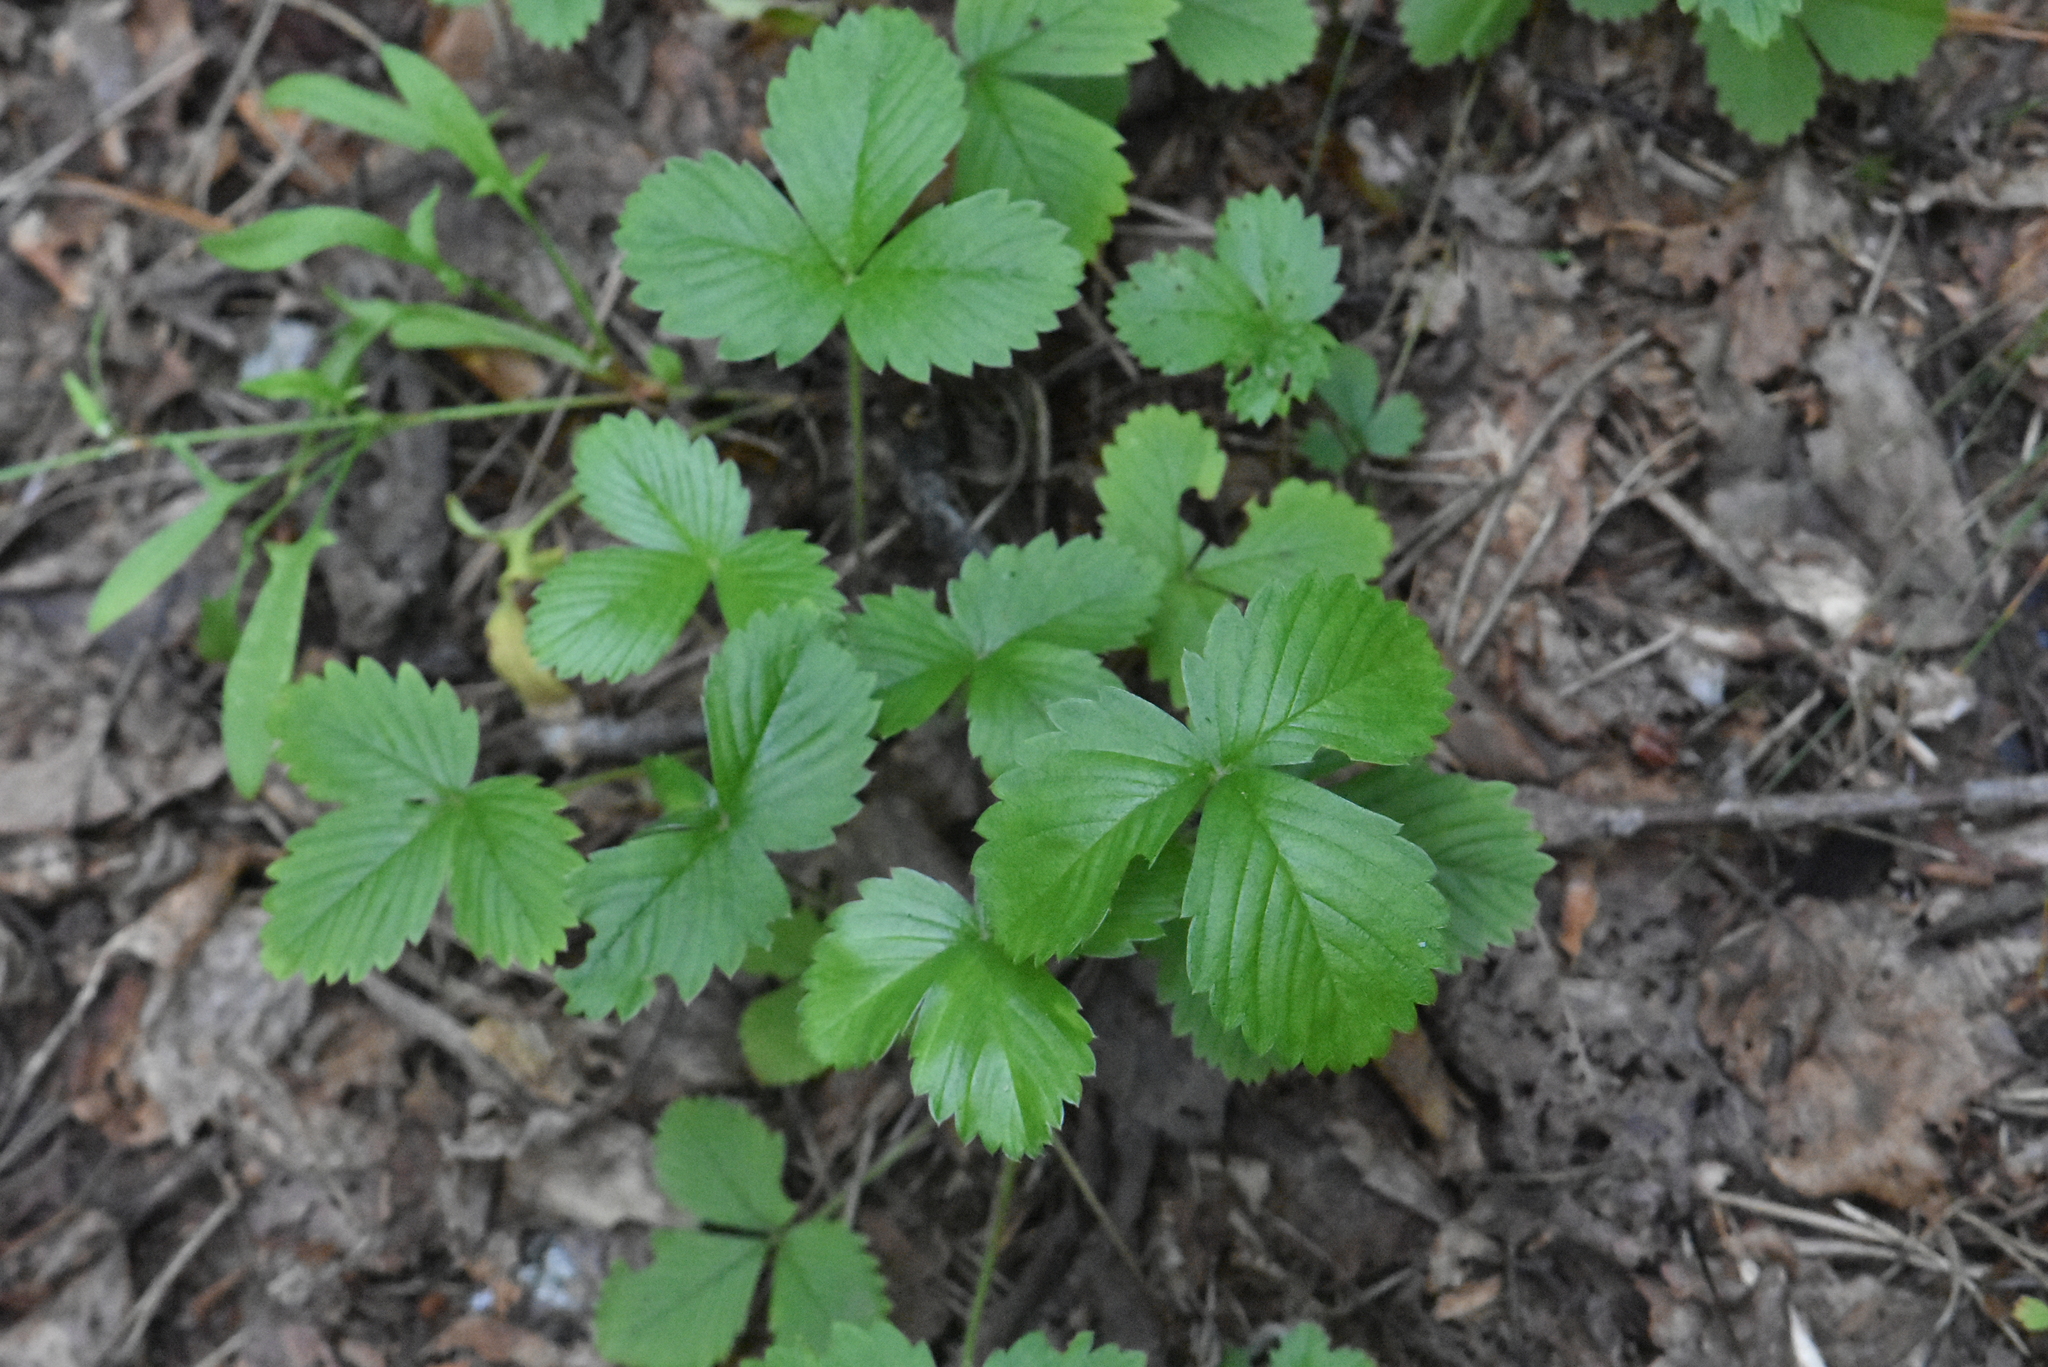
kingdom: Plantae
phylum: Tracheophyta
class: Magnoliopsida
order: Rosales
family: Rosaceae
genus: Fragaria
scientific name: Fragaria vesca
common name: Wild strawberry
